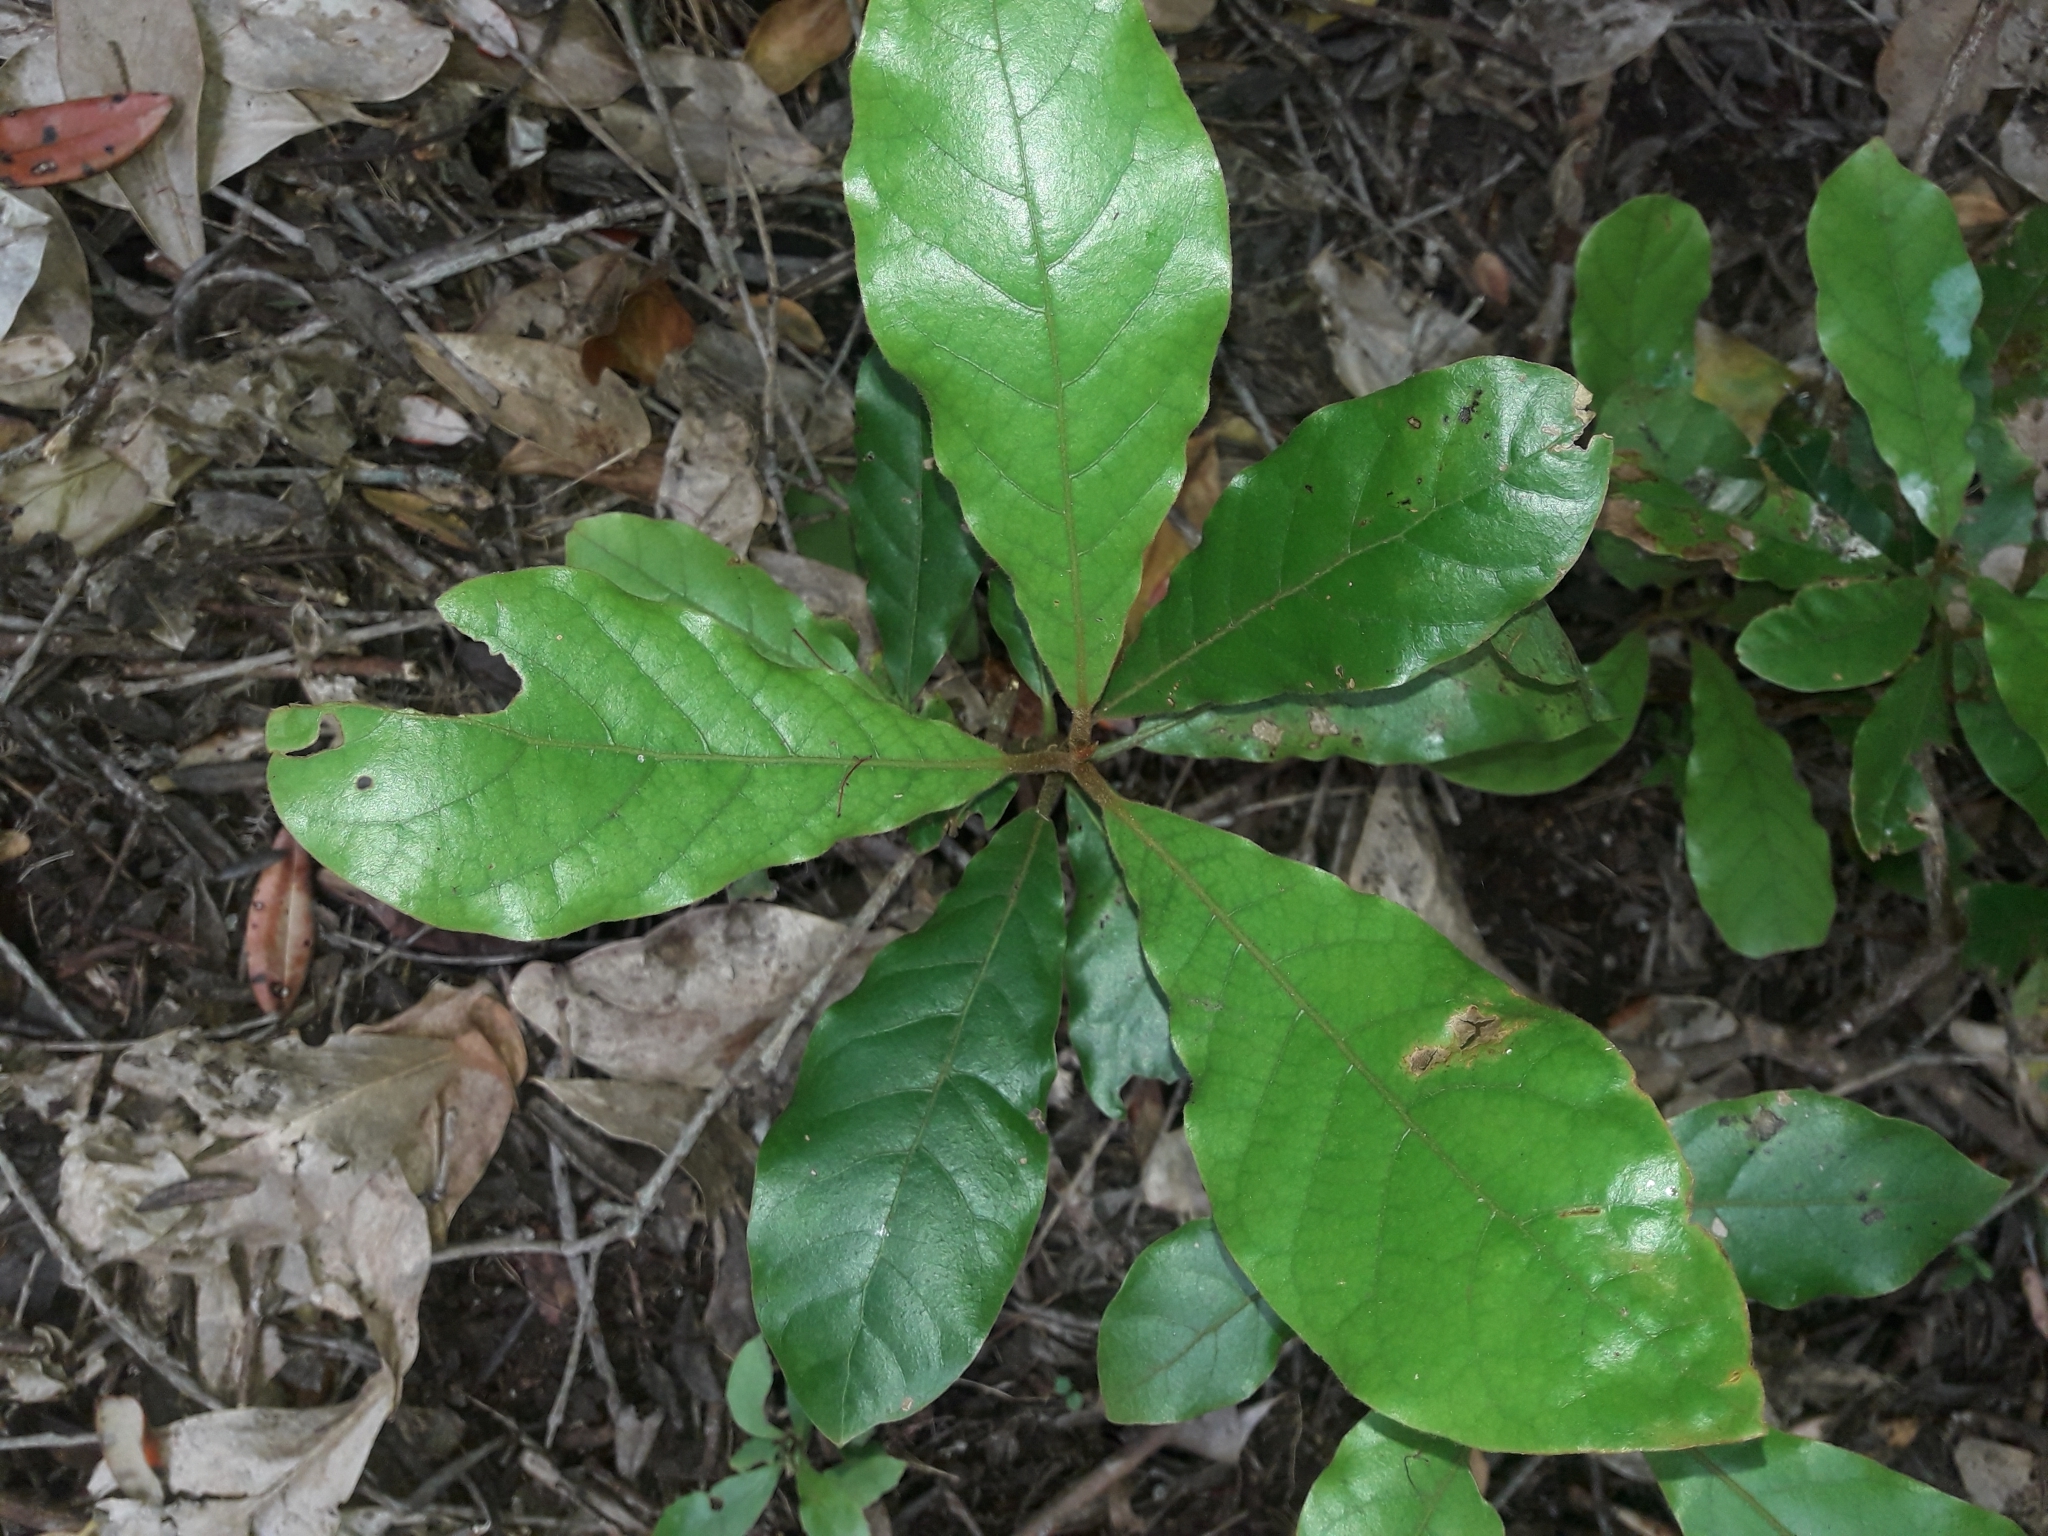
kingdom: Plantae
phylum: Tracheophyta
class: Magnoliopsida
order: Laurales
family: Lauraceae
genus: Beilschmiedia
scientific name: Beilschmiedia tarairi
